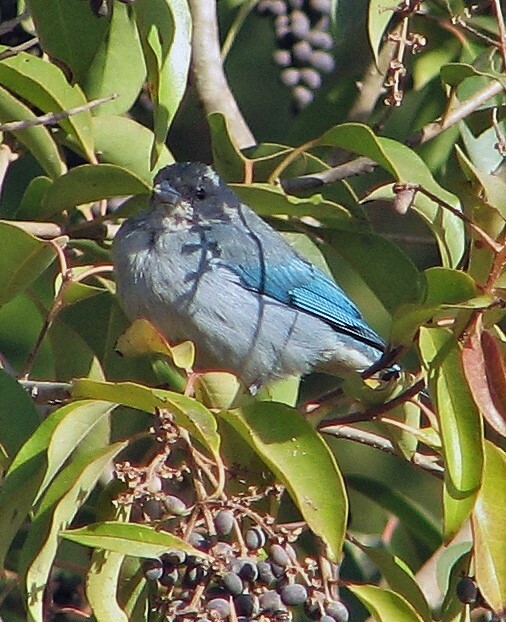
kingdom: Animalia
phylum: Chordata
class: Aves
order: Passeriformes
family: Thraupidae
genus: Thraupis
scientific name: Thraupis sayaca
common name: Sayaca tanager
